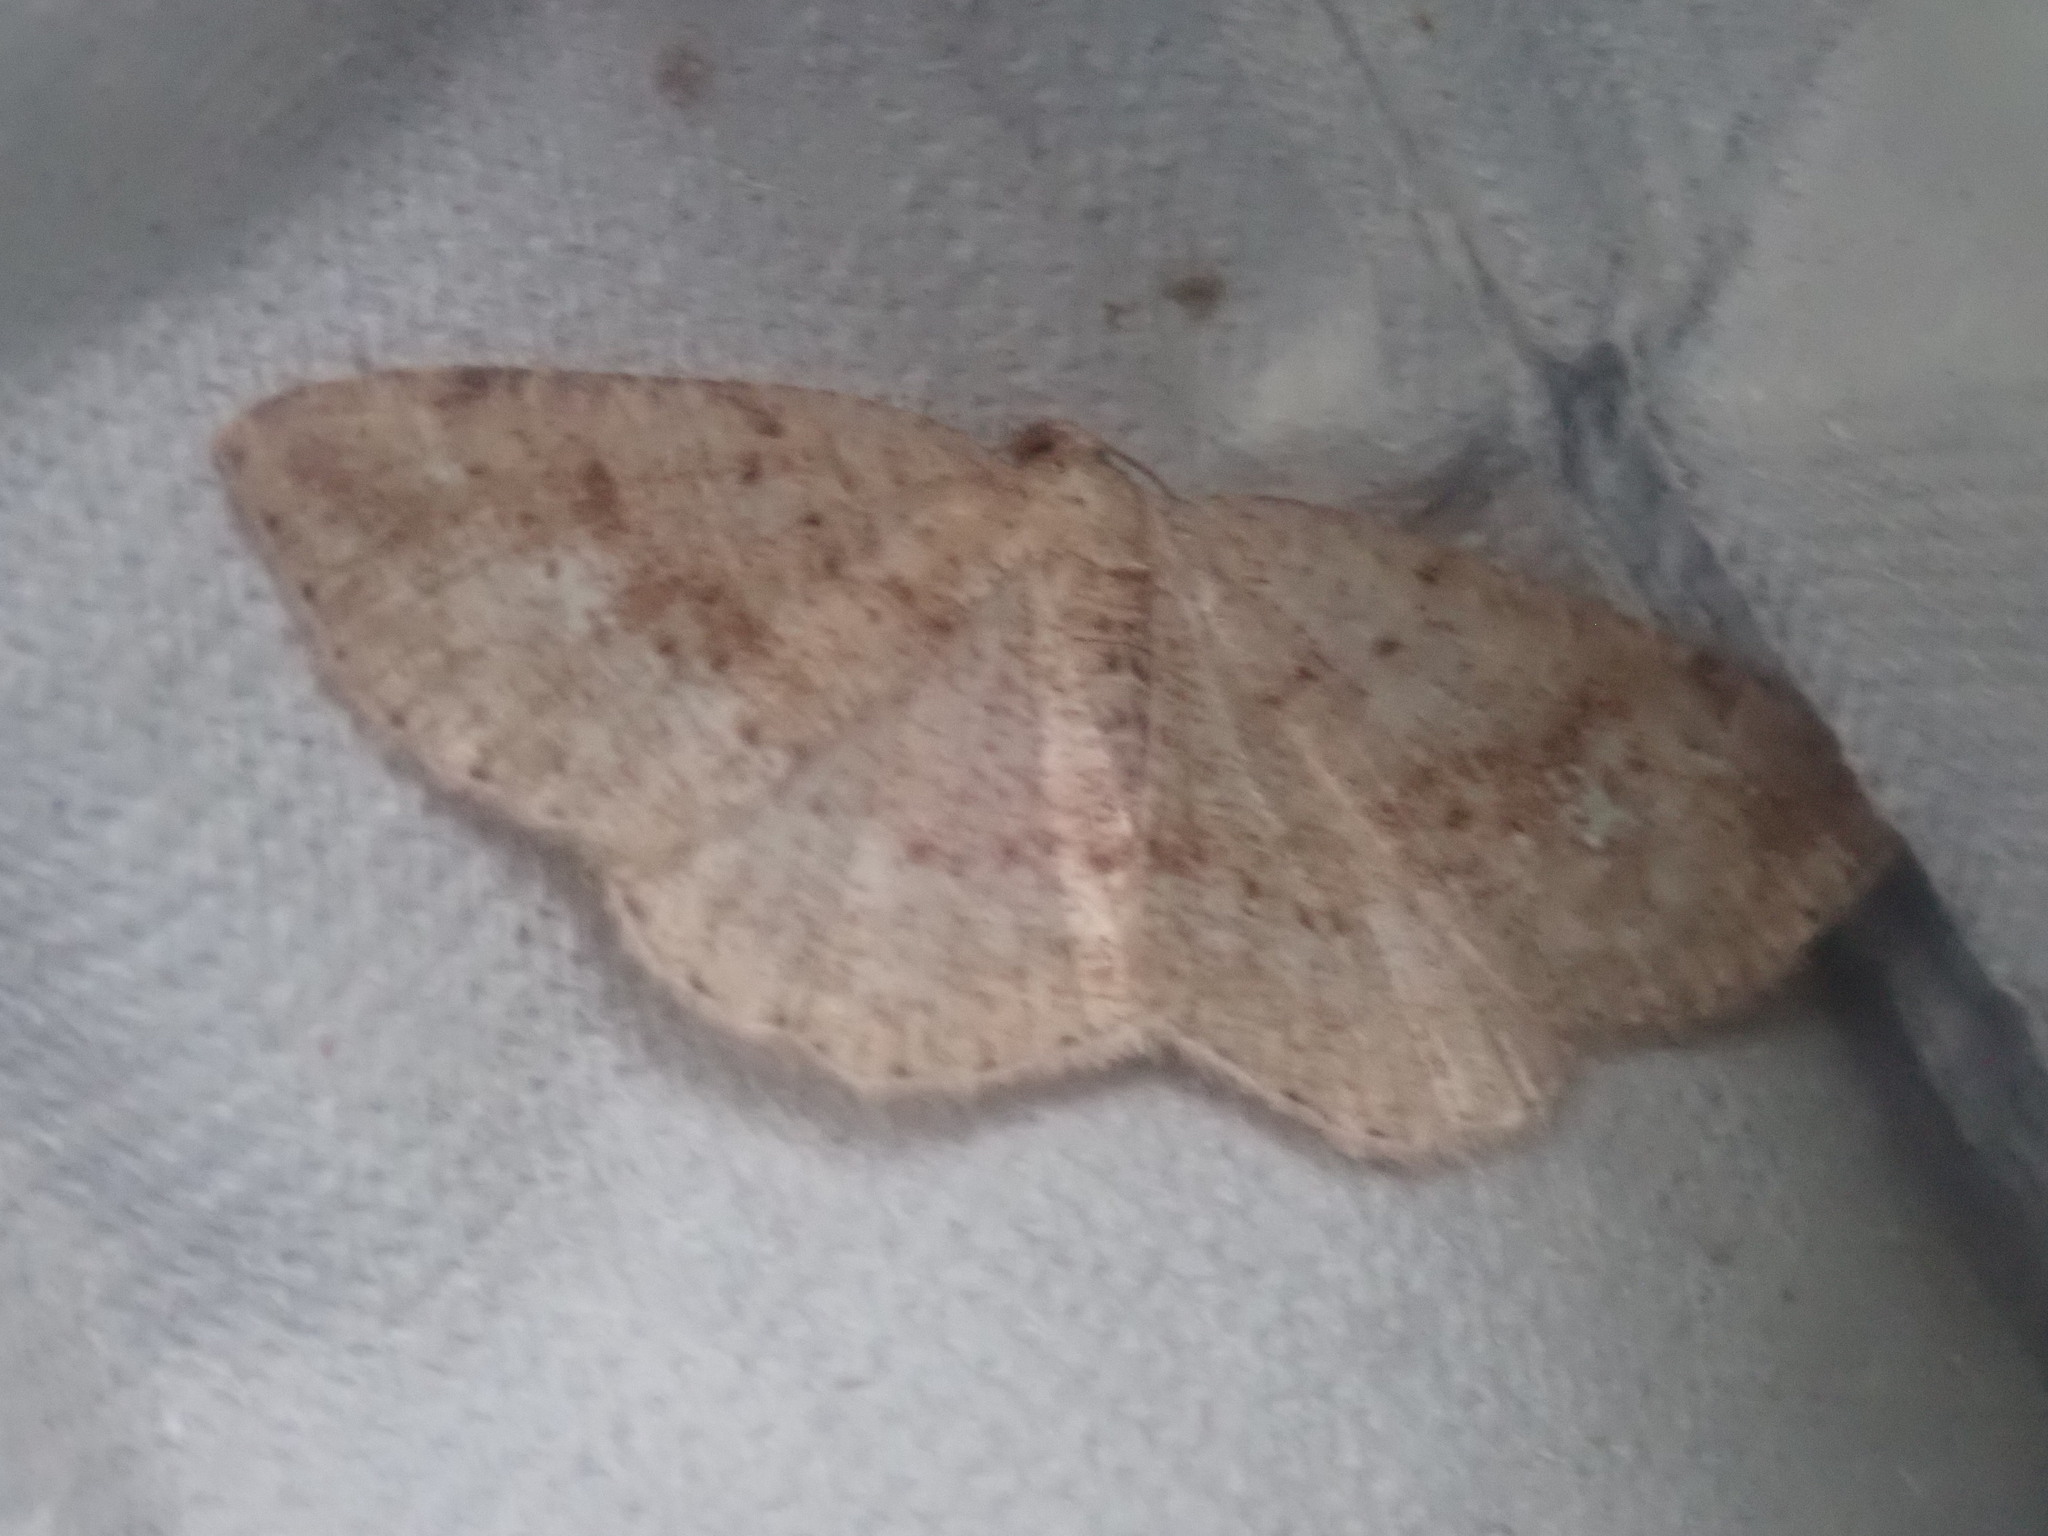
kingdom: Animalia
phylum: Arthropoda
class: Insecta
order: Lepidoptera
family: Geometridae
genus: Homochlodes
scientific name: Homochlodes fritillaria
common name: Pale homochlodes
